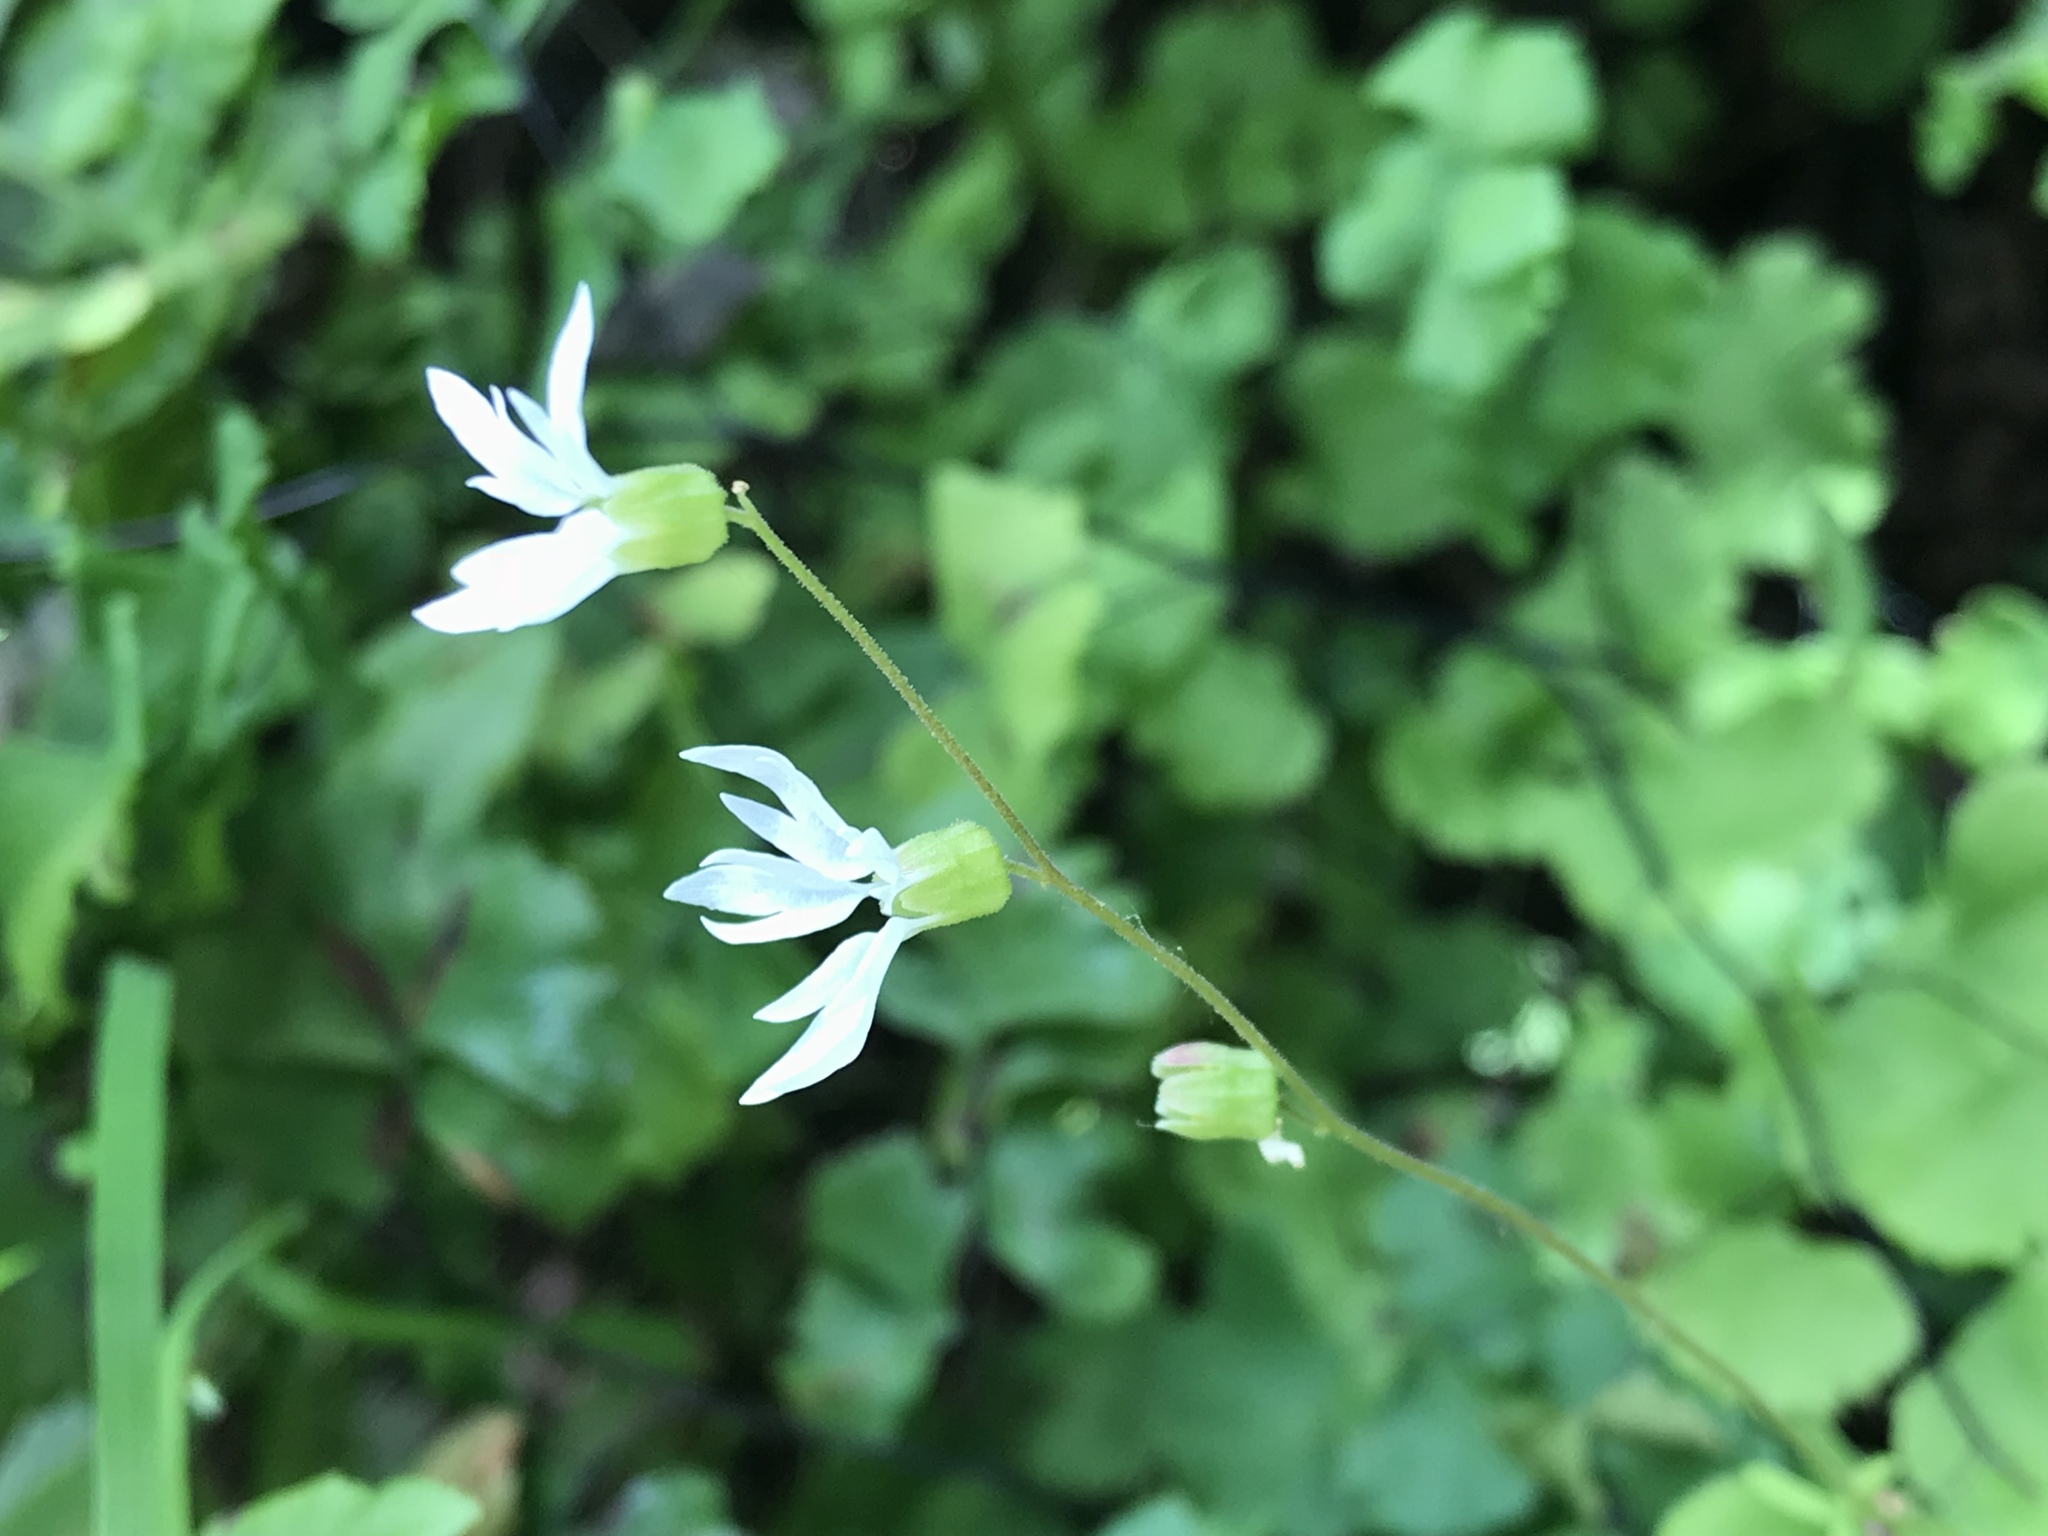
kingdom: Plantae
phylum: Tracheophyta
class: Magnoliopsida
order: Saxifragales
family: Saxifragaceae
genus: Lithophragma
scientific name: Lithophragma heterophyllum
